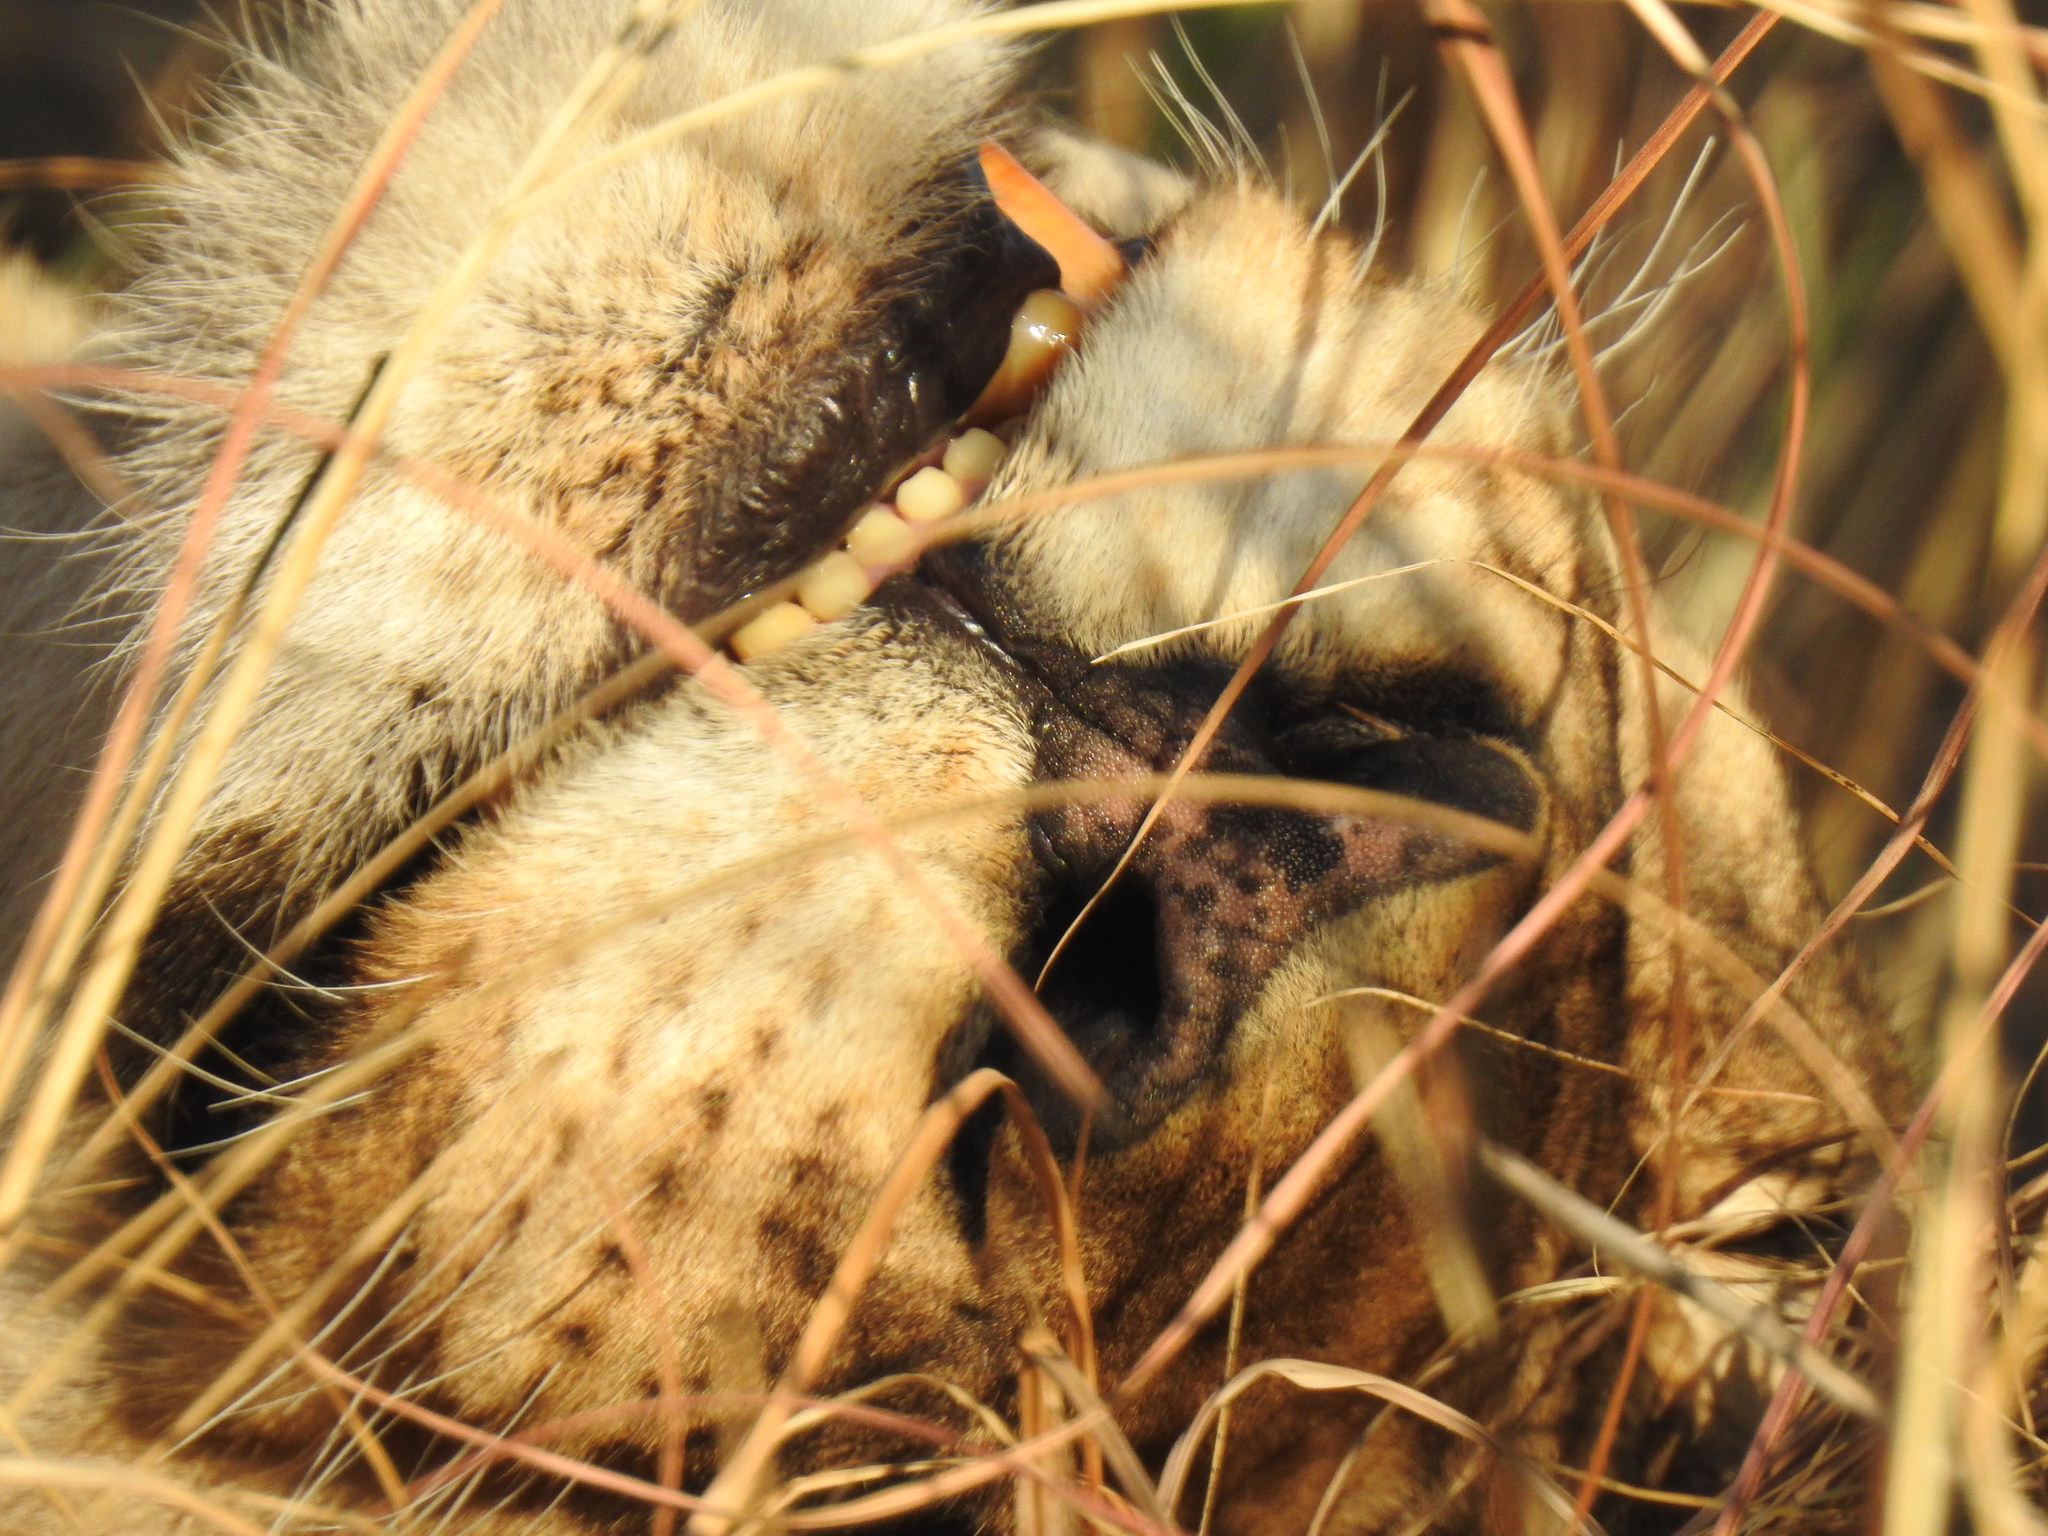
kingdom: Animalia
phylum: Chordata
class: Mammalia
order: Carnivora
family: Felidae
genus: Panthera
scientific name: Panthera leo
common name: Lion
